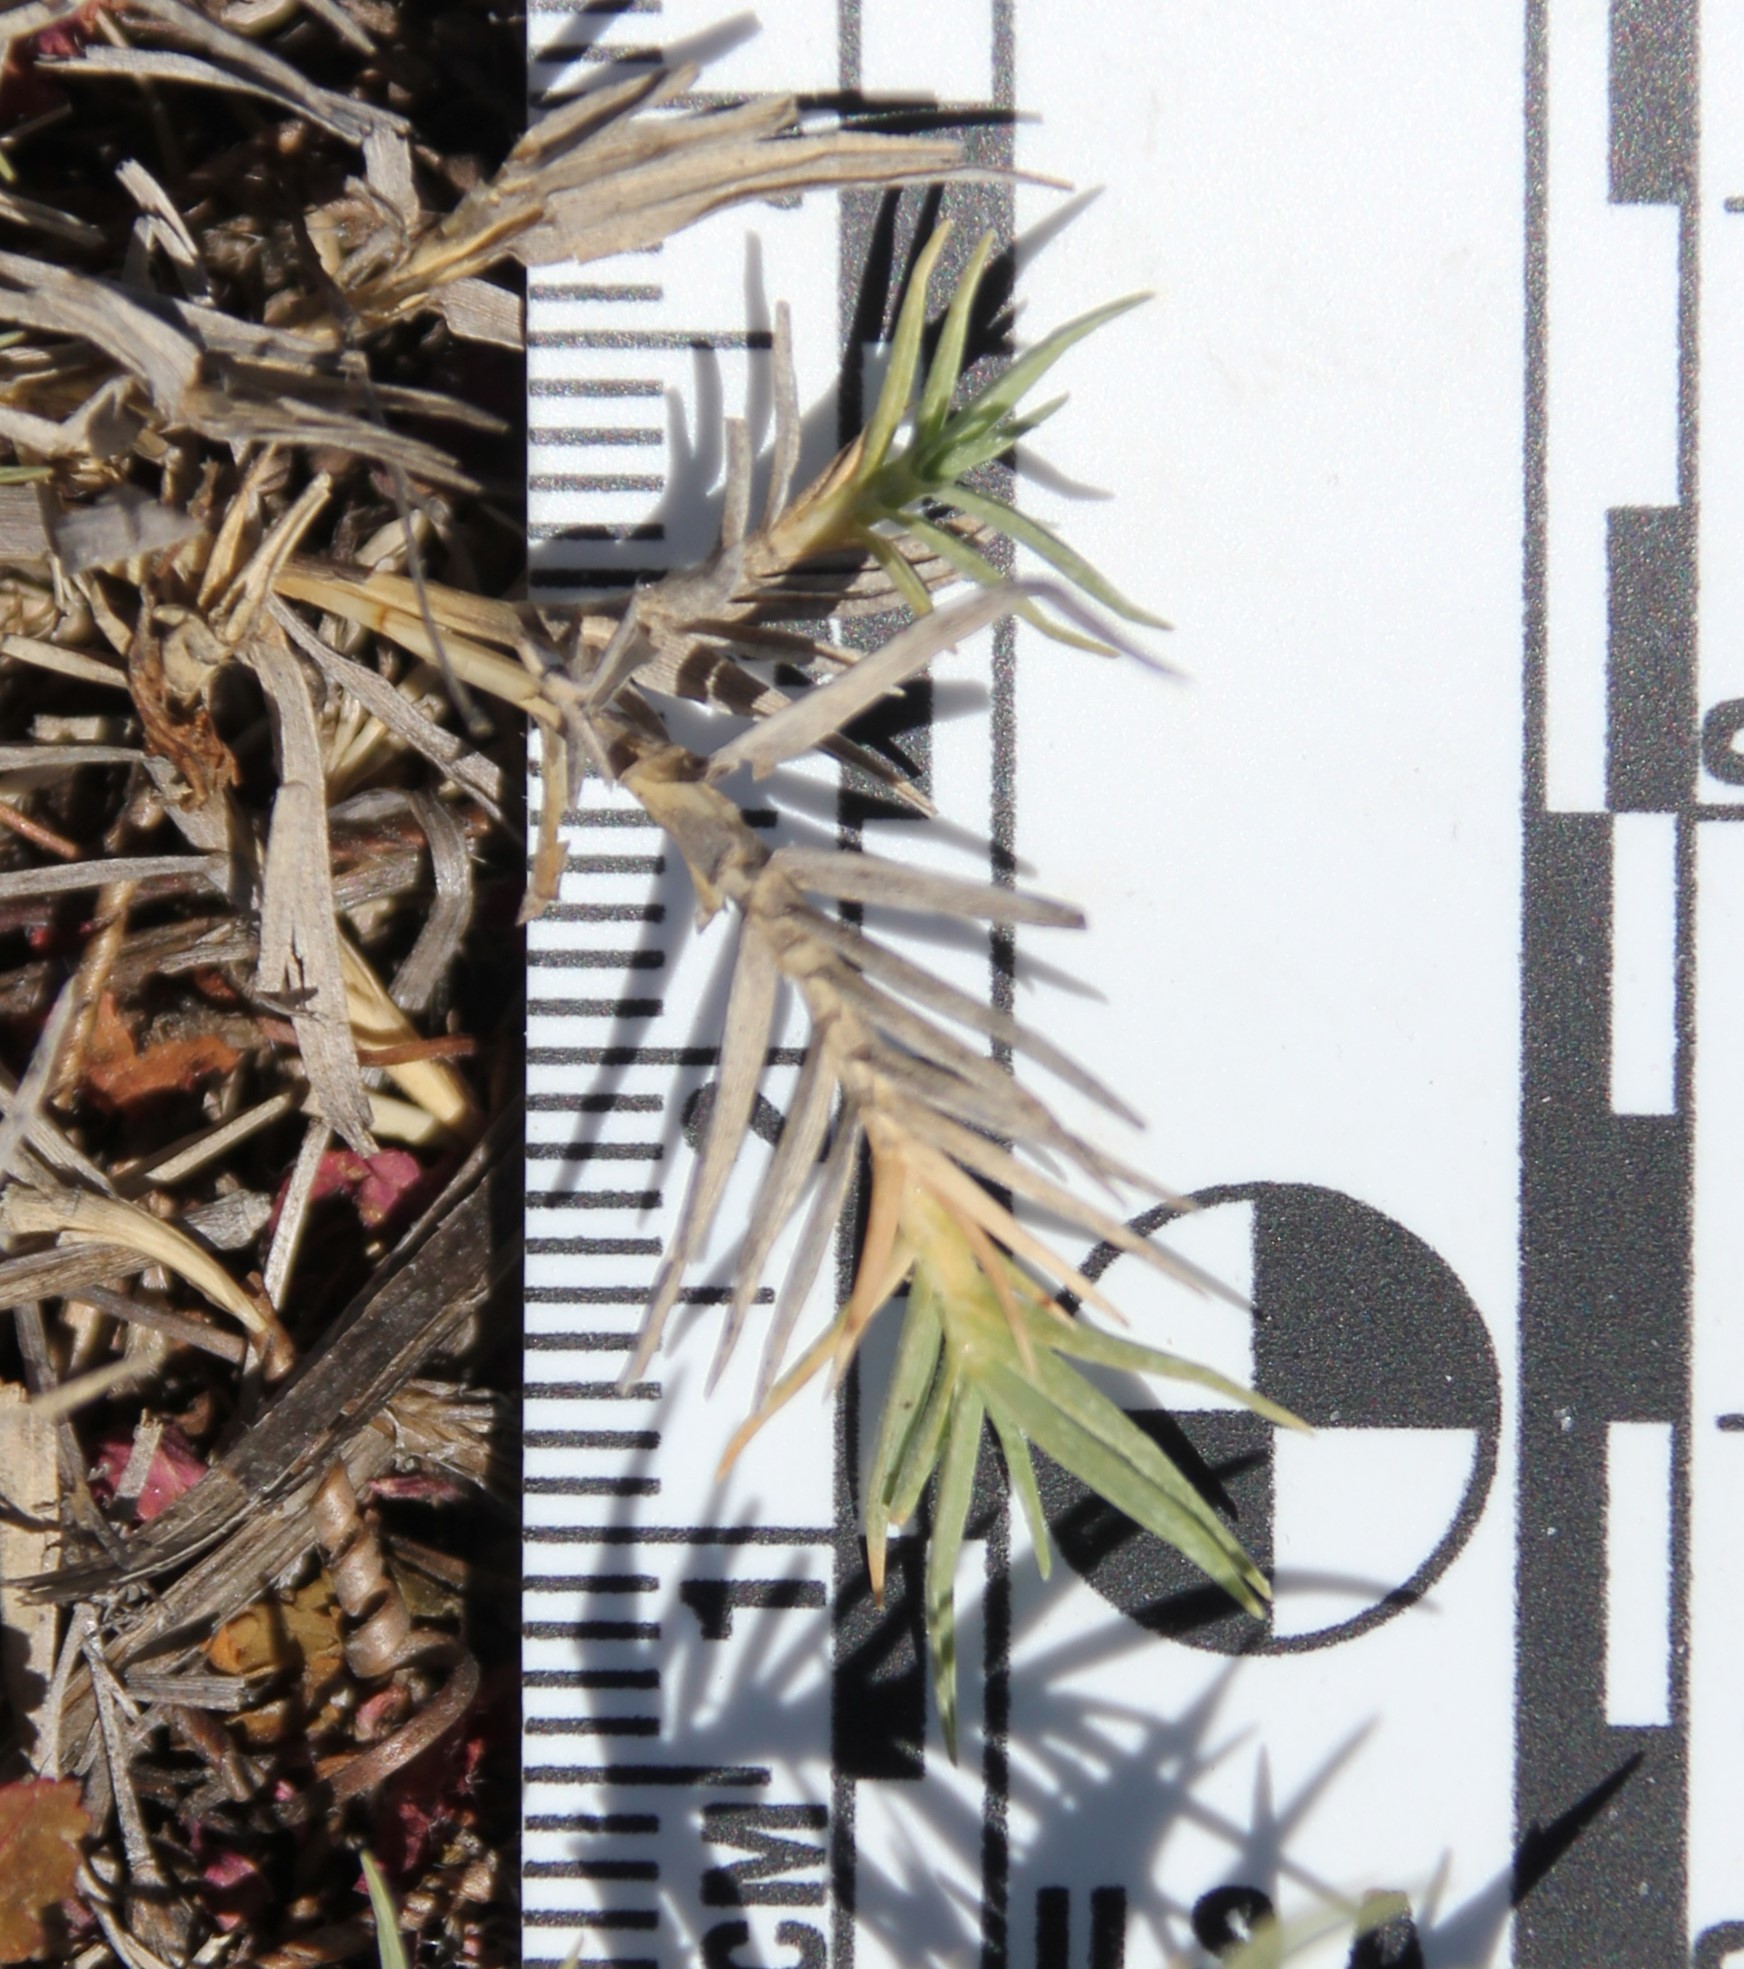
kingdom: Plantae
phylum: Tracheophyta
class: Liliopsida
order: Poales
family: Poaceae
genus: Distichlis
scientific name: Distichlis spicata
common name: Saltgrass
